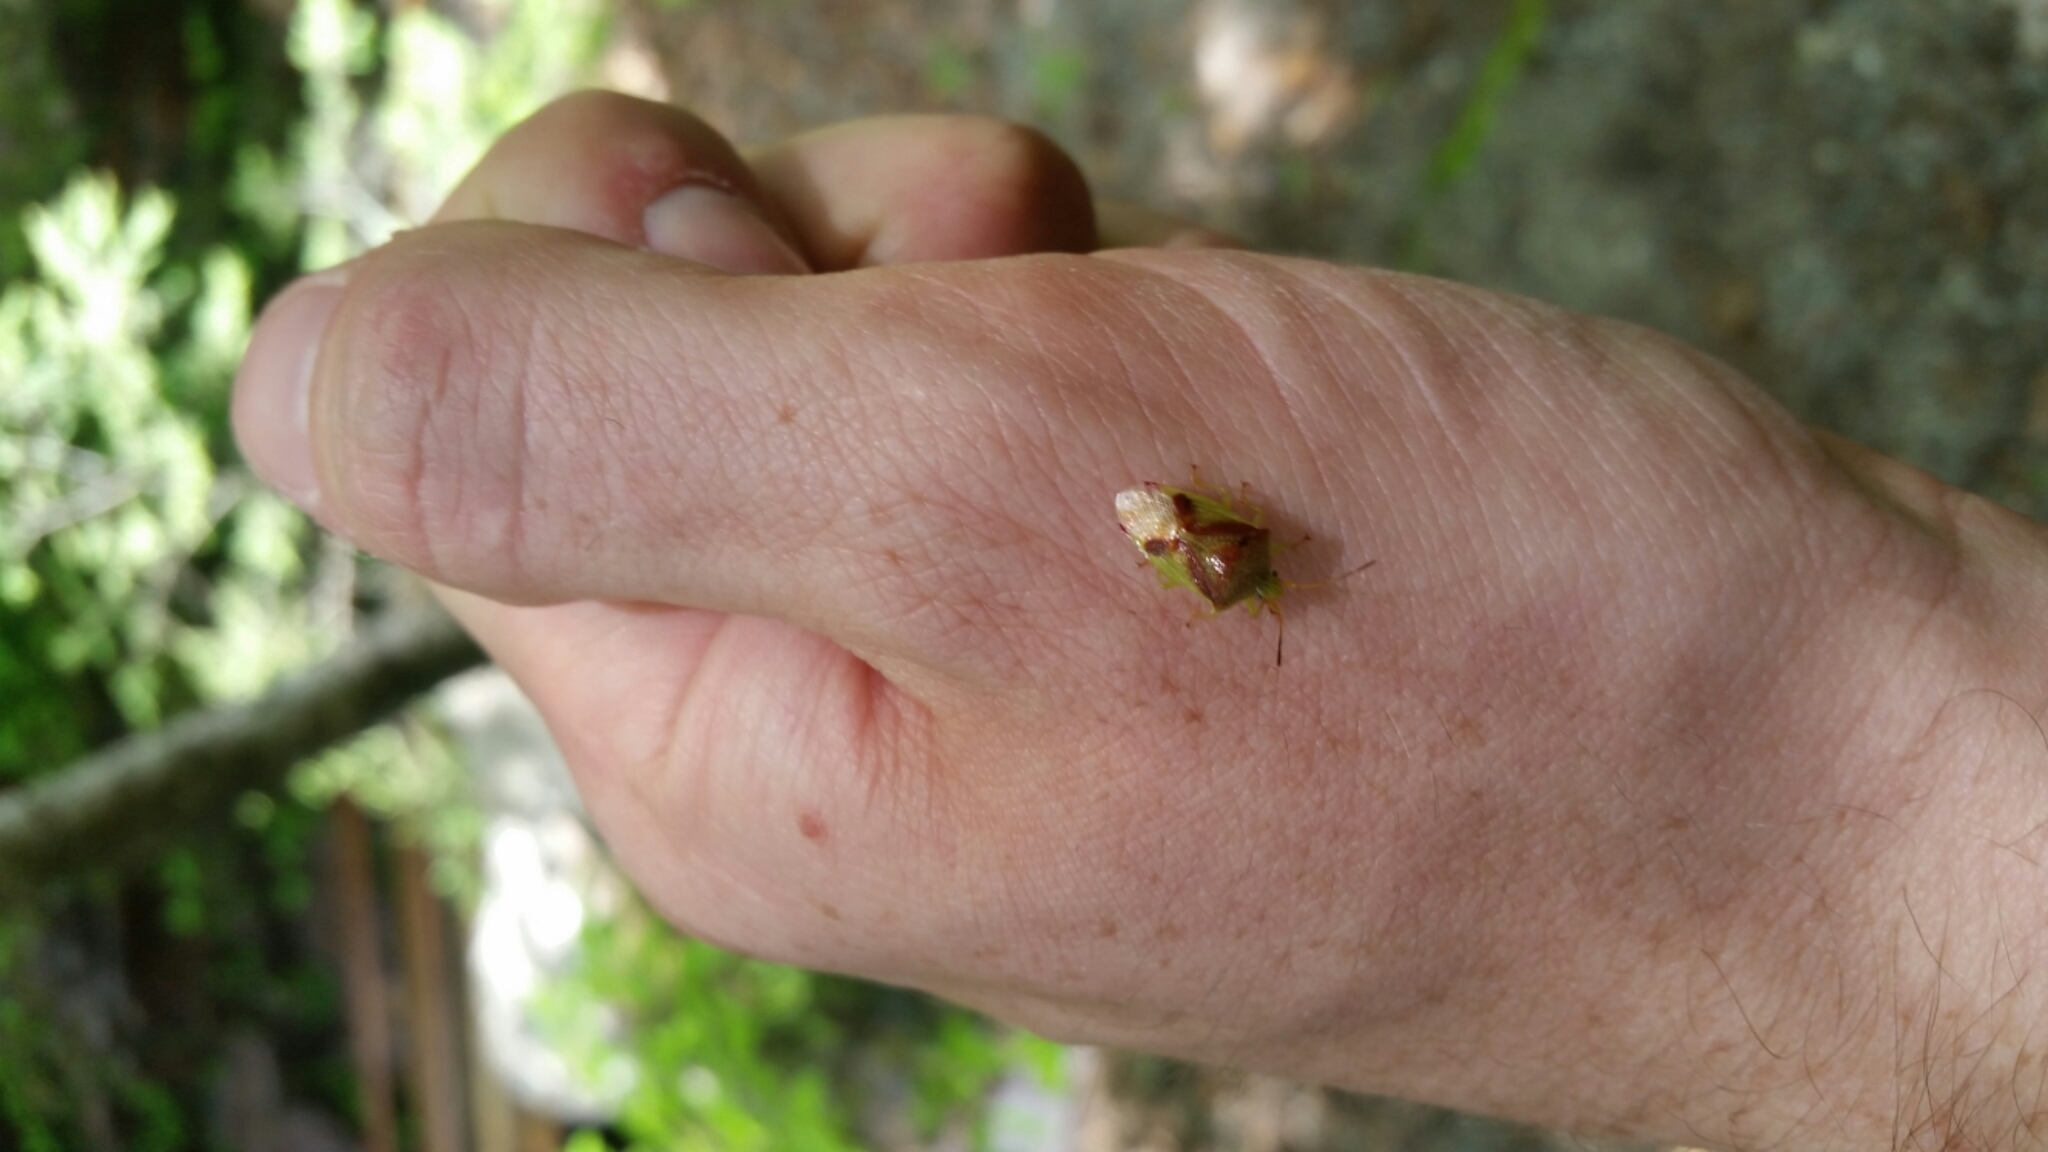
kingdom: Animalia
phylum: Arthropoda
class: Insecta
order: Hemiptera
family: Acanthosomatidae
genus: Elasmostethus
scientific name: Elasmostethus cruciatus
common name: Red-cross shield bug
